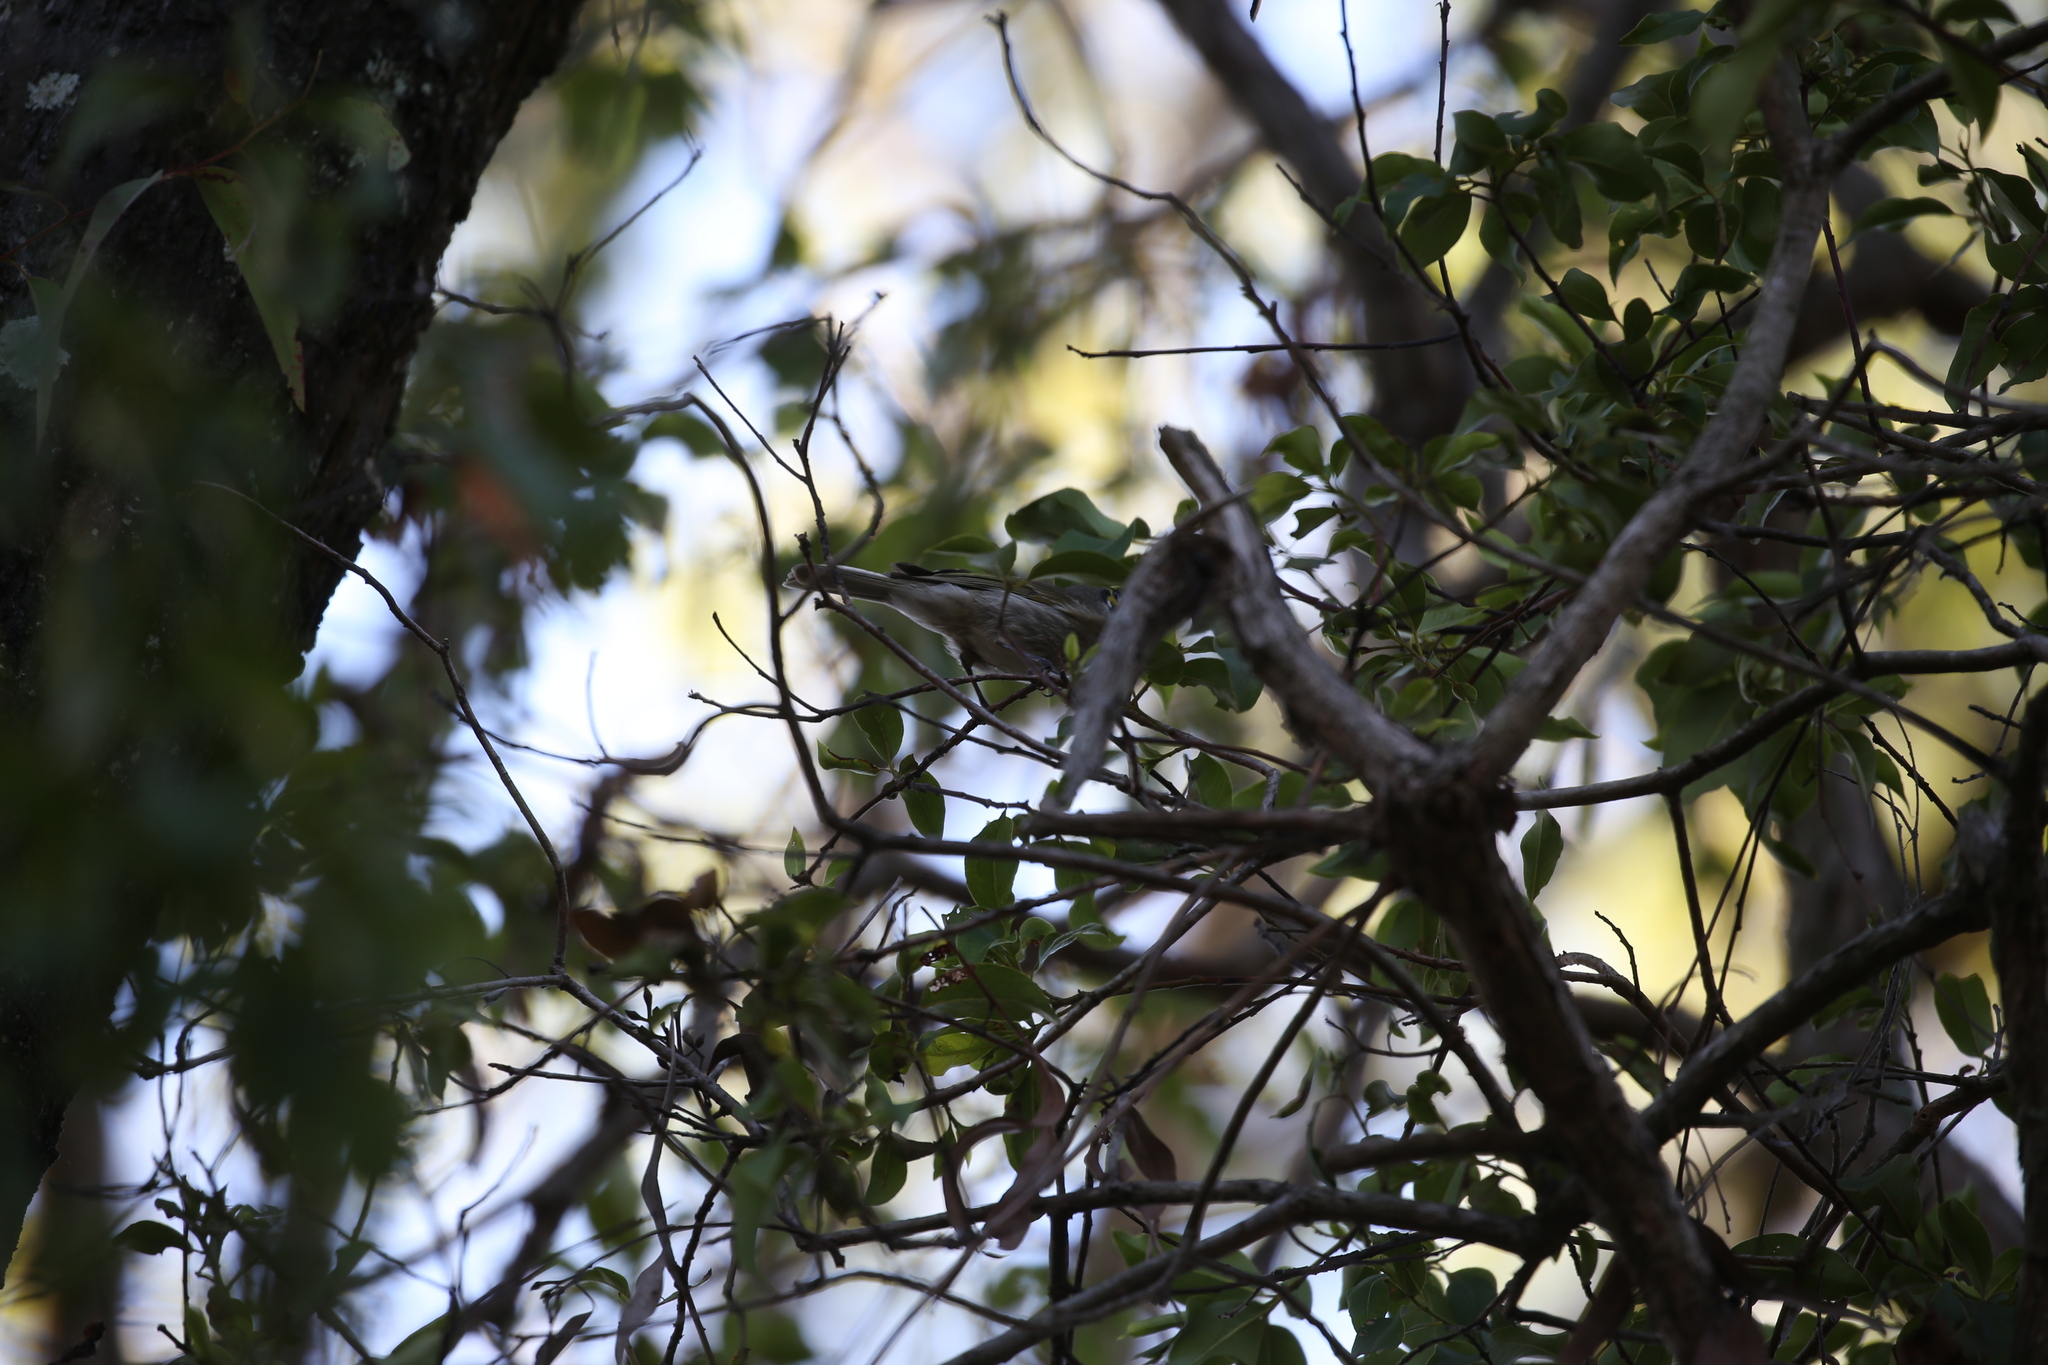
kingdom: Animalia
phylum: Chordata
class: Aves
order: Passeriformes
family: Meliphagidae
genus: Caligavis
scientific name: Caligavis chrysops
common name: Yellow-faced honeyeater
